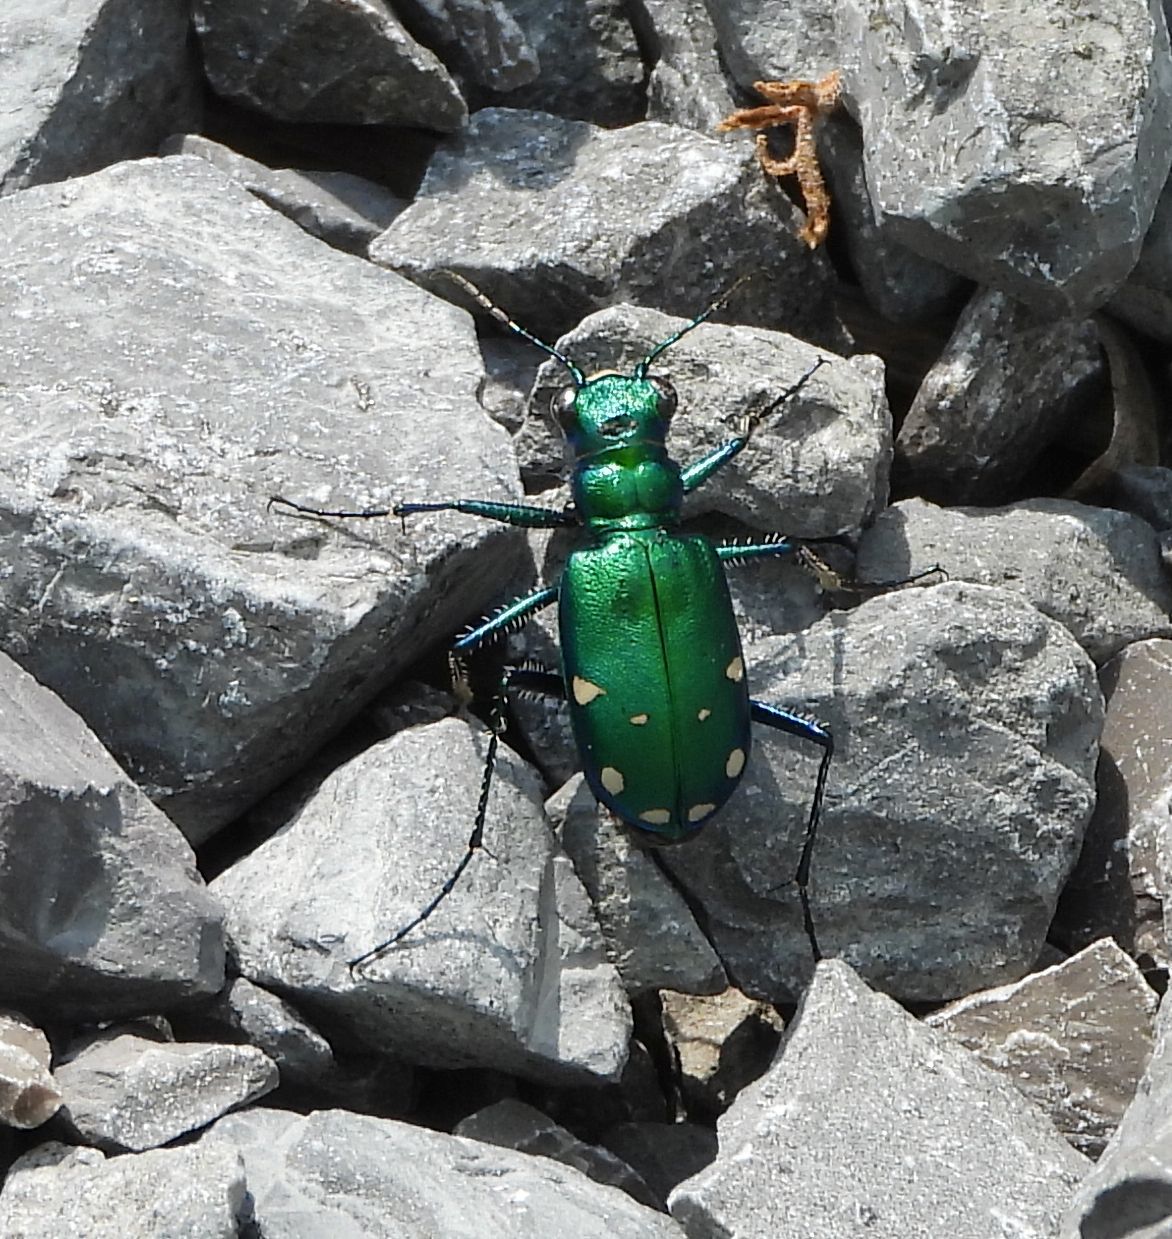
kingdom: Animalia
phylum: Arthropoda
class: Insecta
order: Coleoptera
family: Carabidae
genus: Cicindela
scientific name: Cicindela sexguttata
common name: Six-spotted tiger beetle
